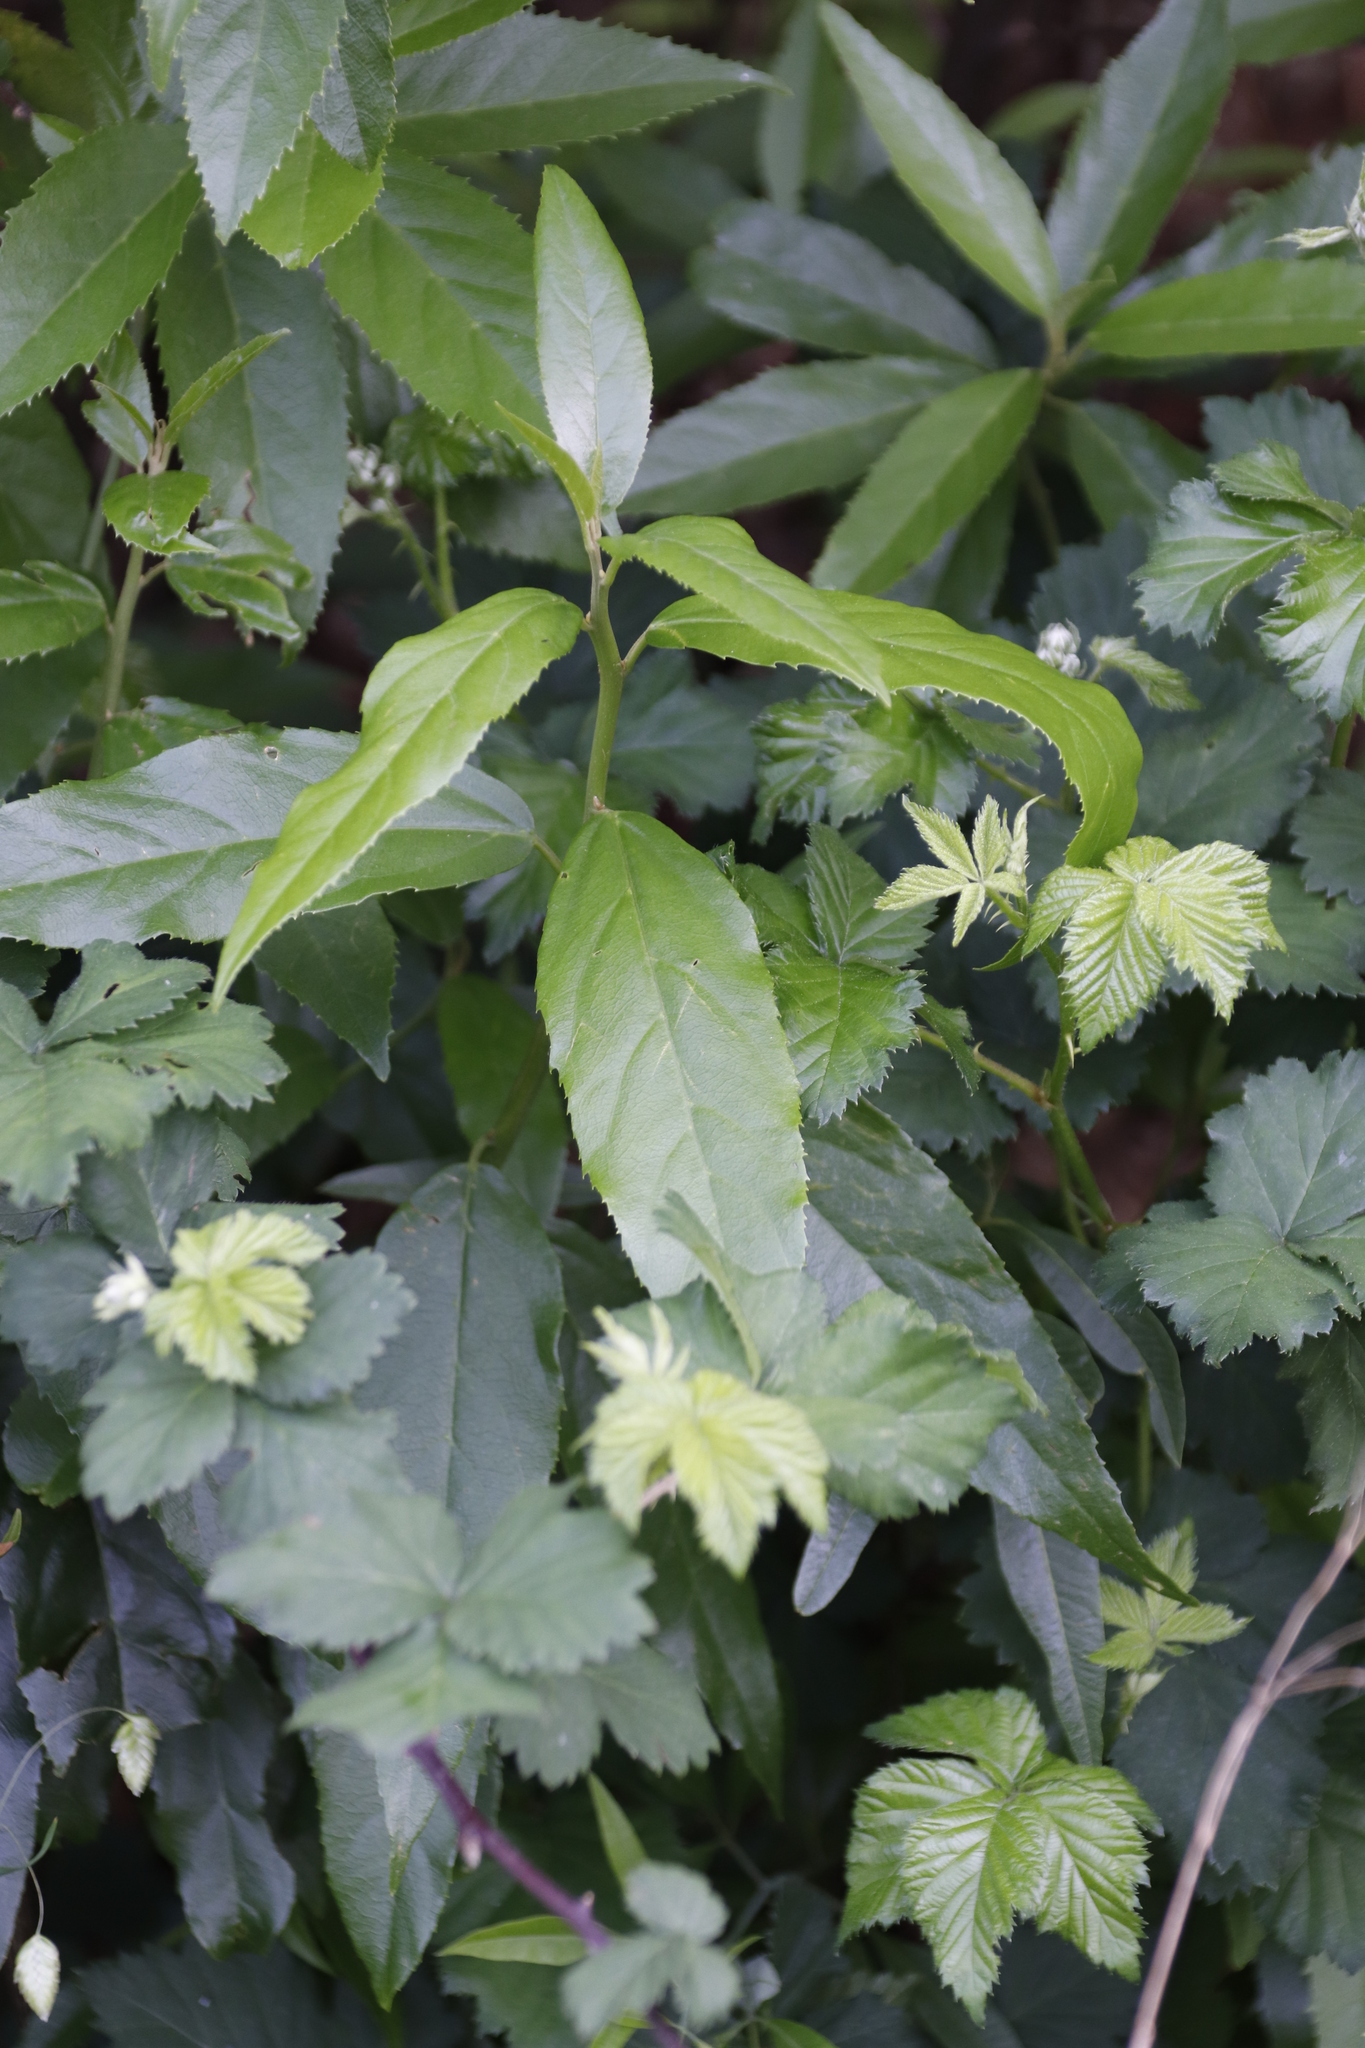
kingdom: Plantae
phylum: Tracheophyta
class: Magnoliopsida
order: Rosales
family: Rosaceae
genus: Rubus
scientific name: Rubus
